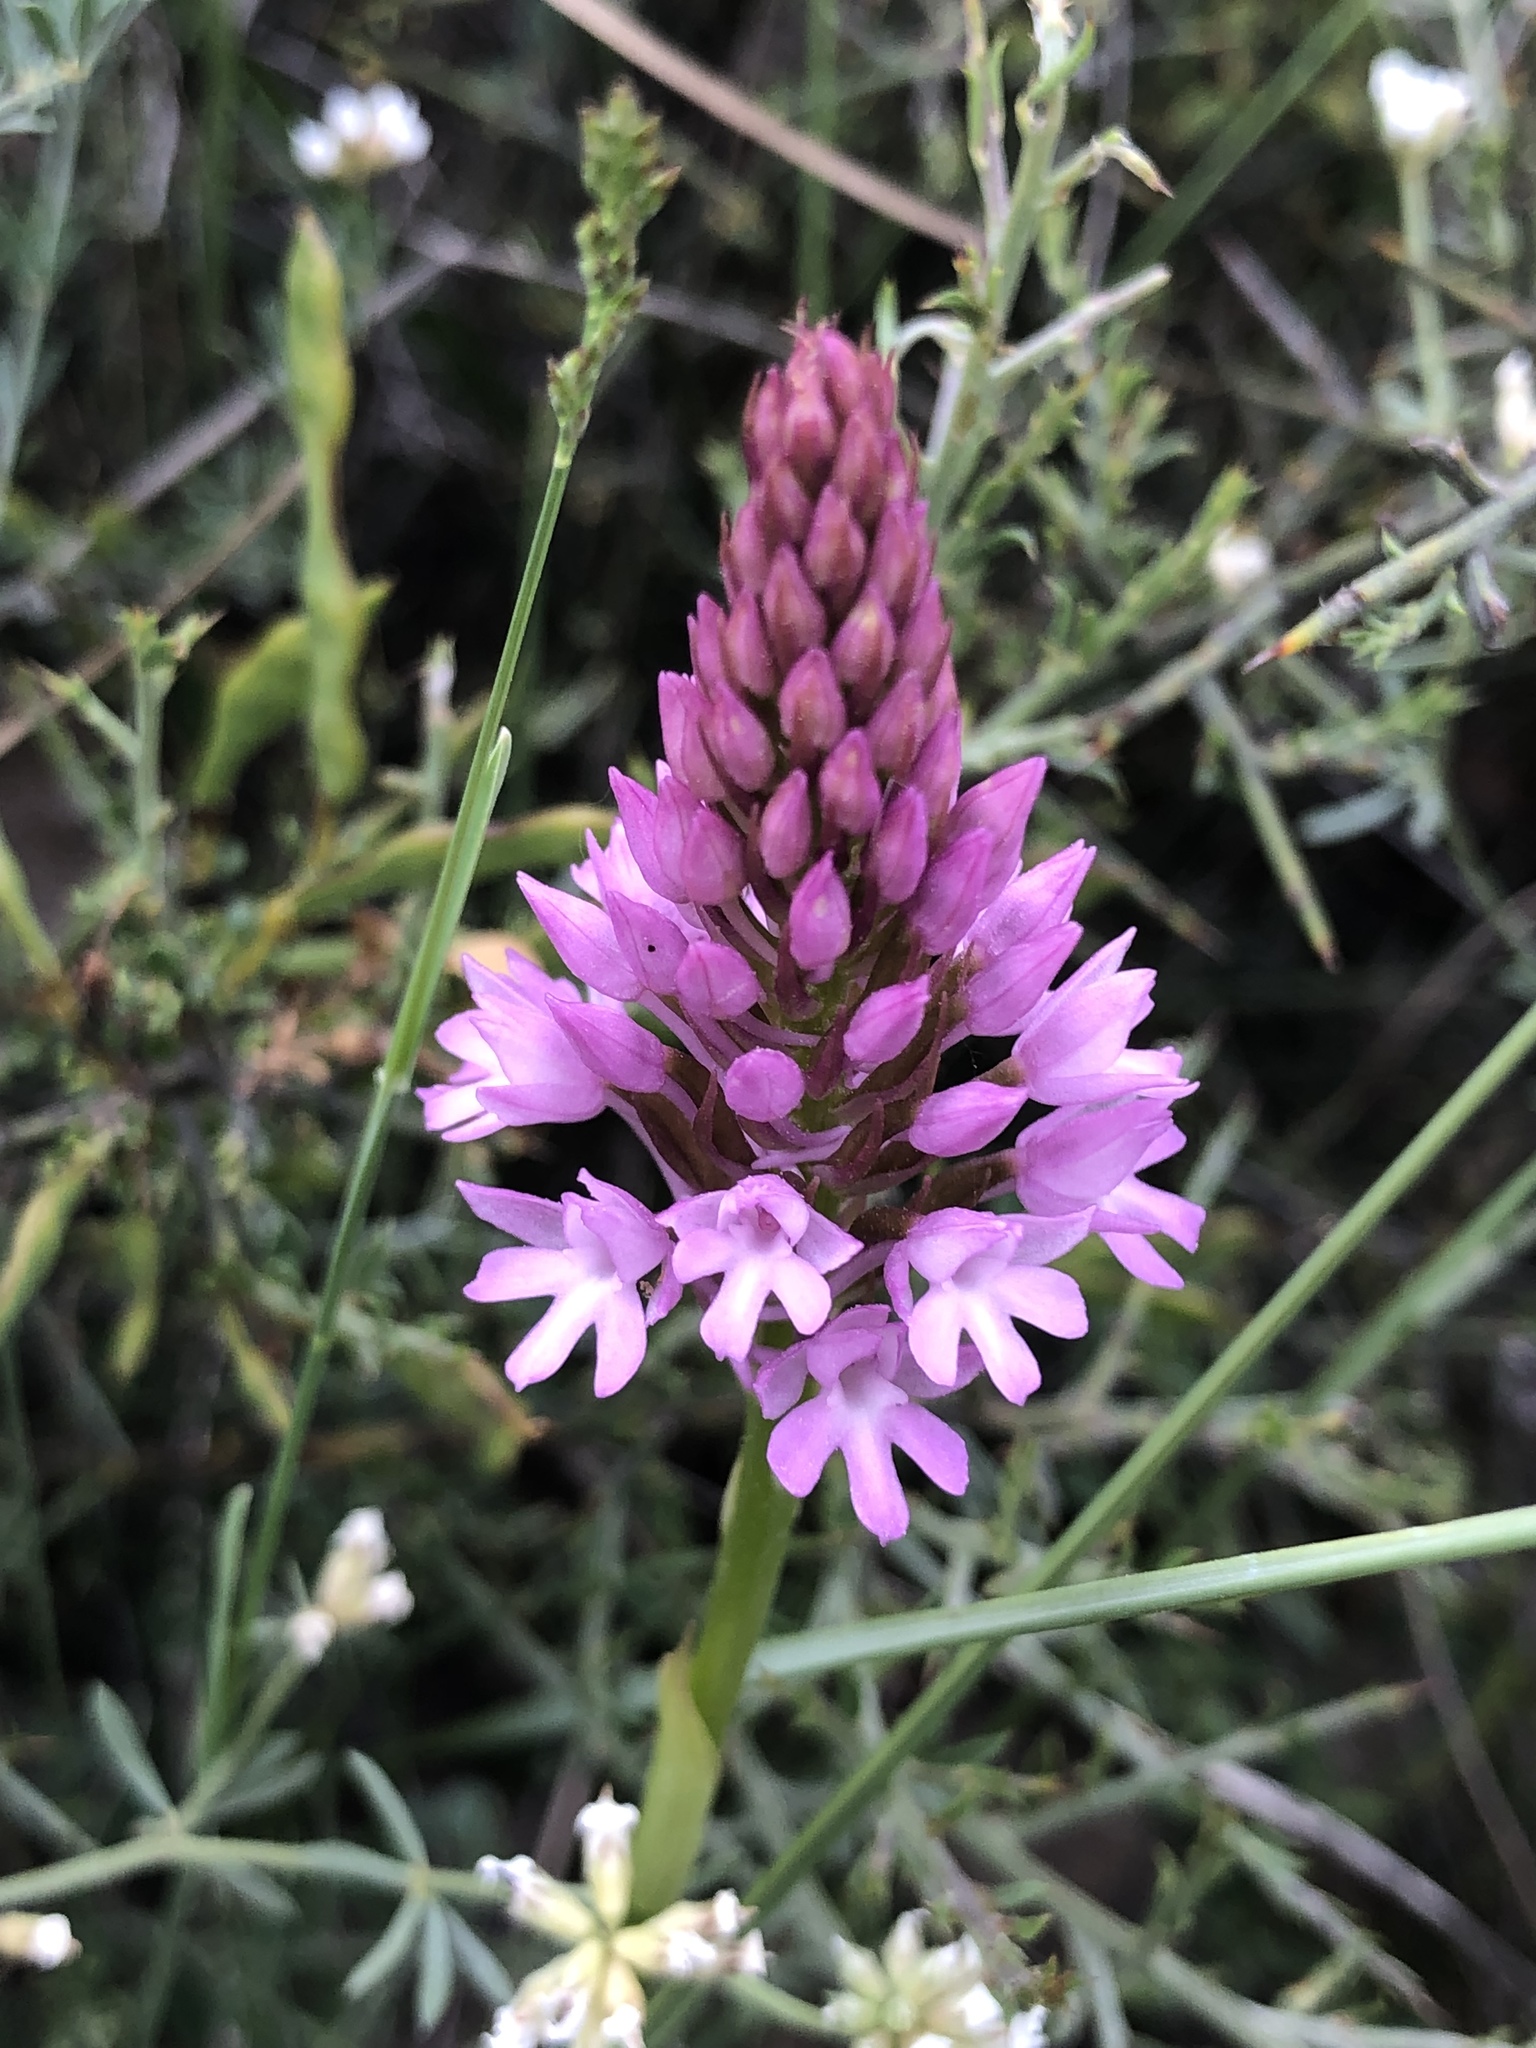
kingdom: Plantae
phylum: Tracheophyta
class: Liliopsida
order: Asparagales
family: Orchidaceae
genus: Anacamptis
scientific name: Anacamptis pyramidalis
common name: Pyramidal orchid
